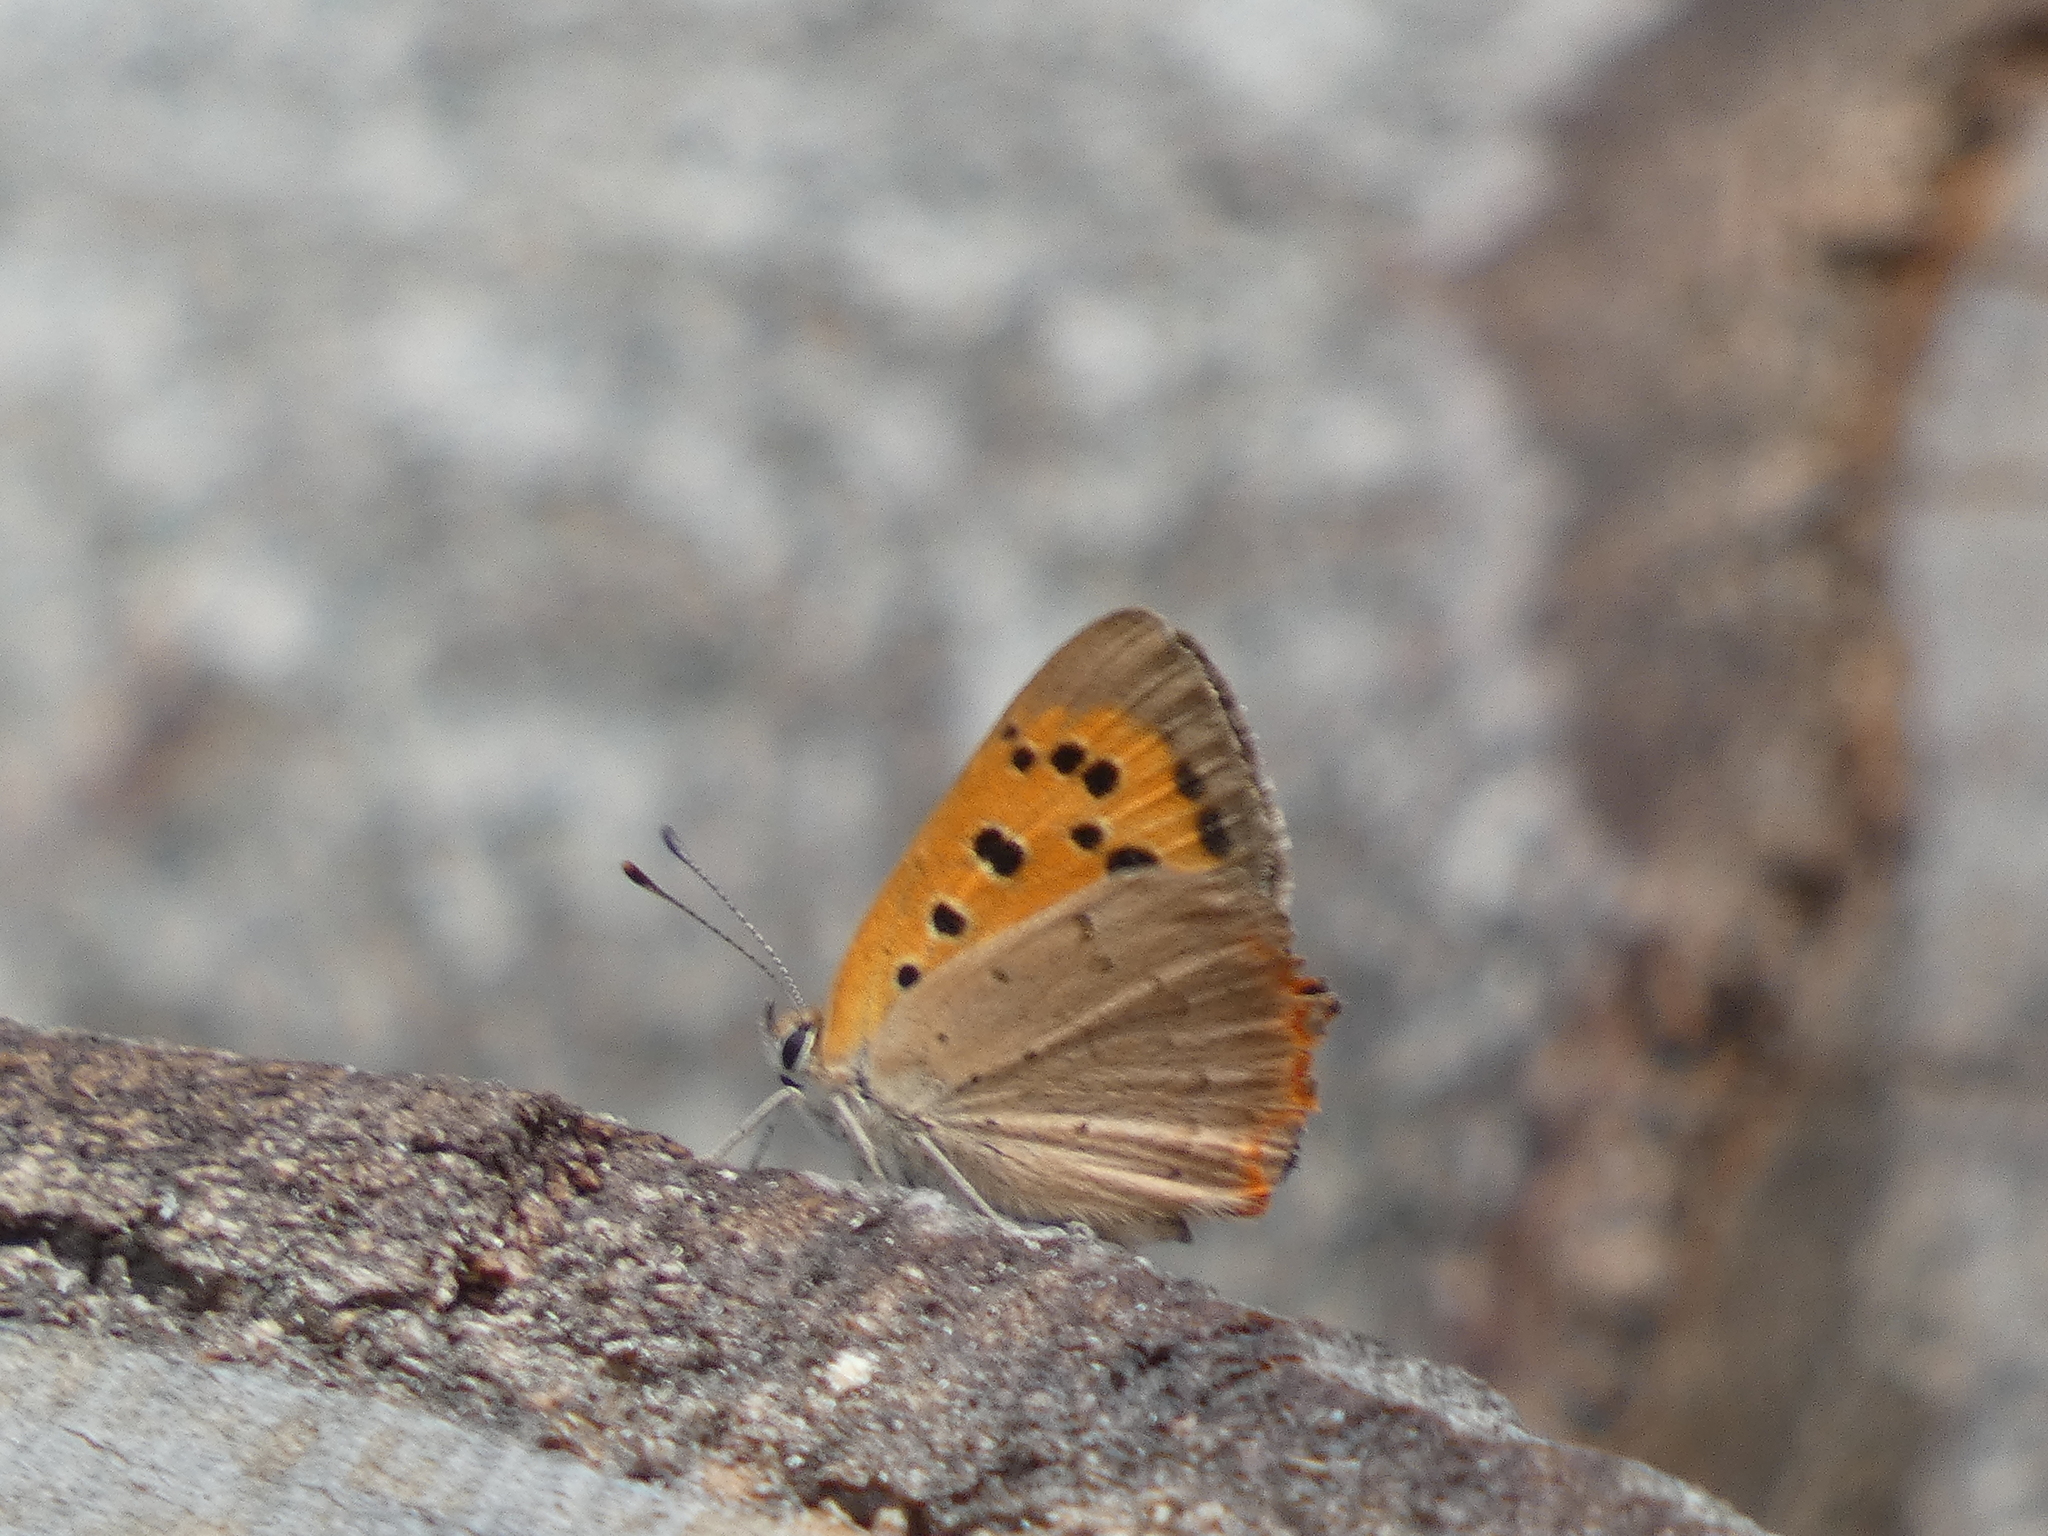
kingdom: Animalia
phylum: Arthropoda
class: Insecta
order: Lepidoptera
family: Lycaenidae
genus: Lycaena
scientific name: Lycaena phlaeas
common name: Small copper
